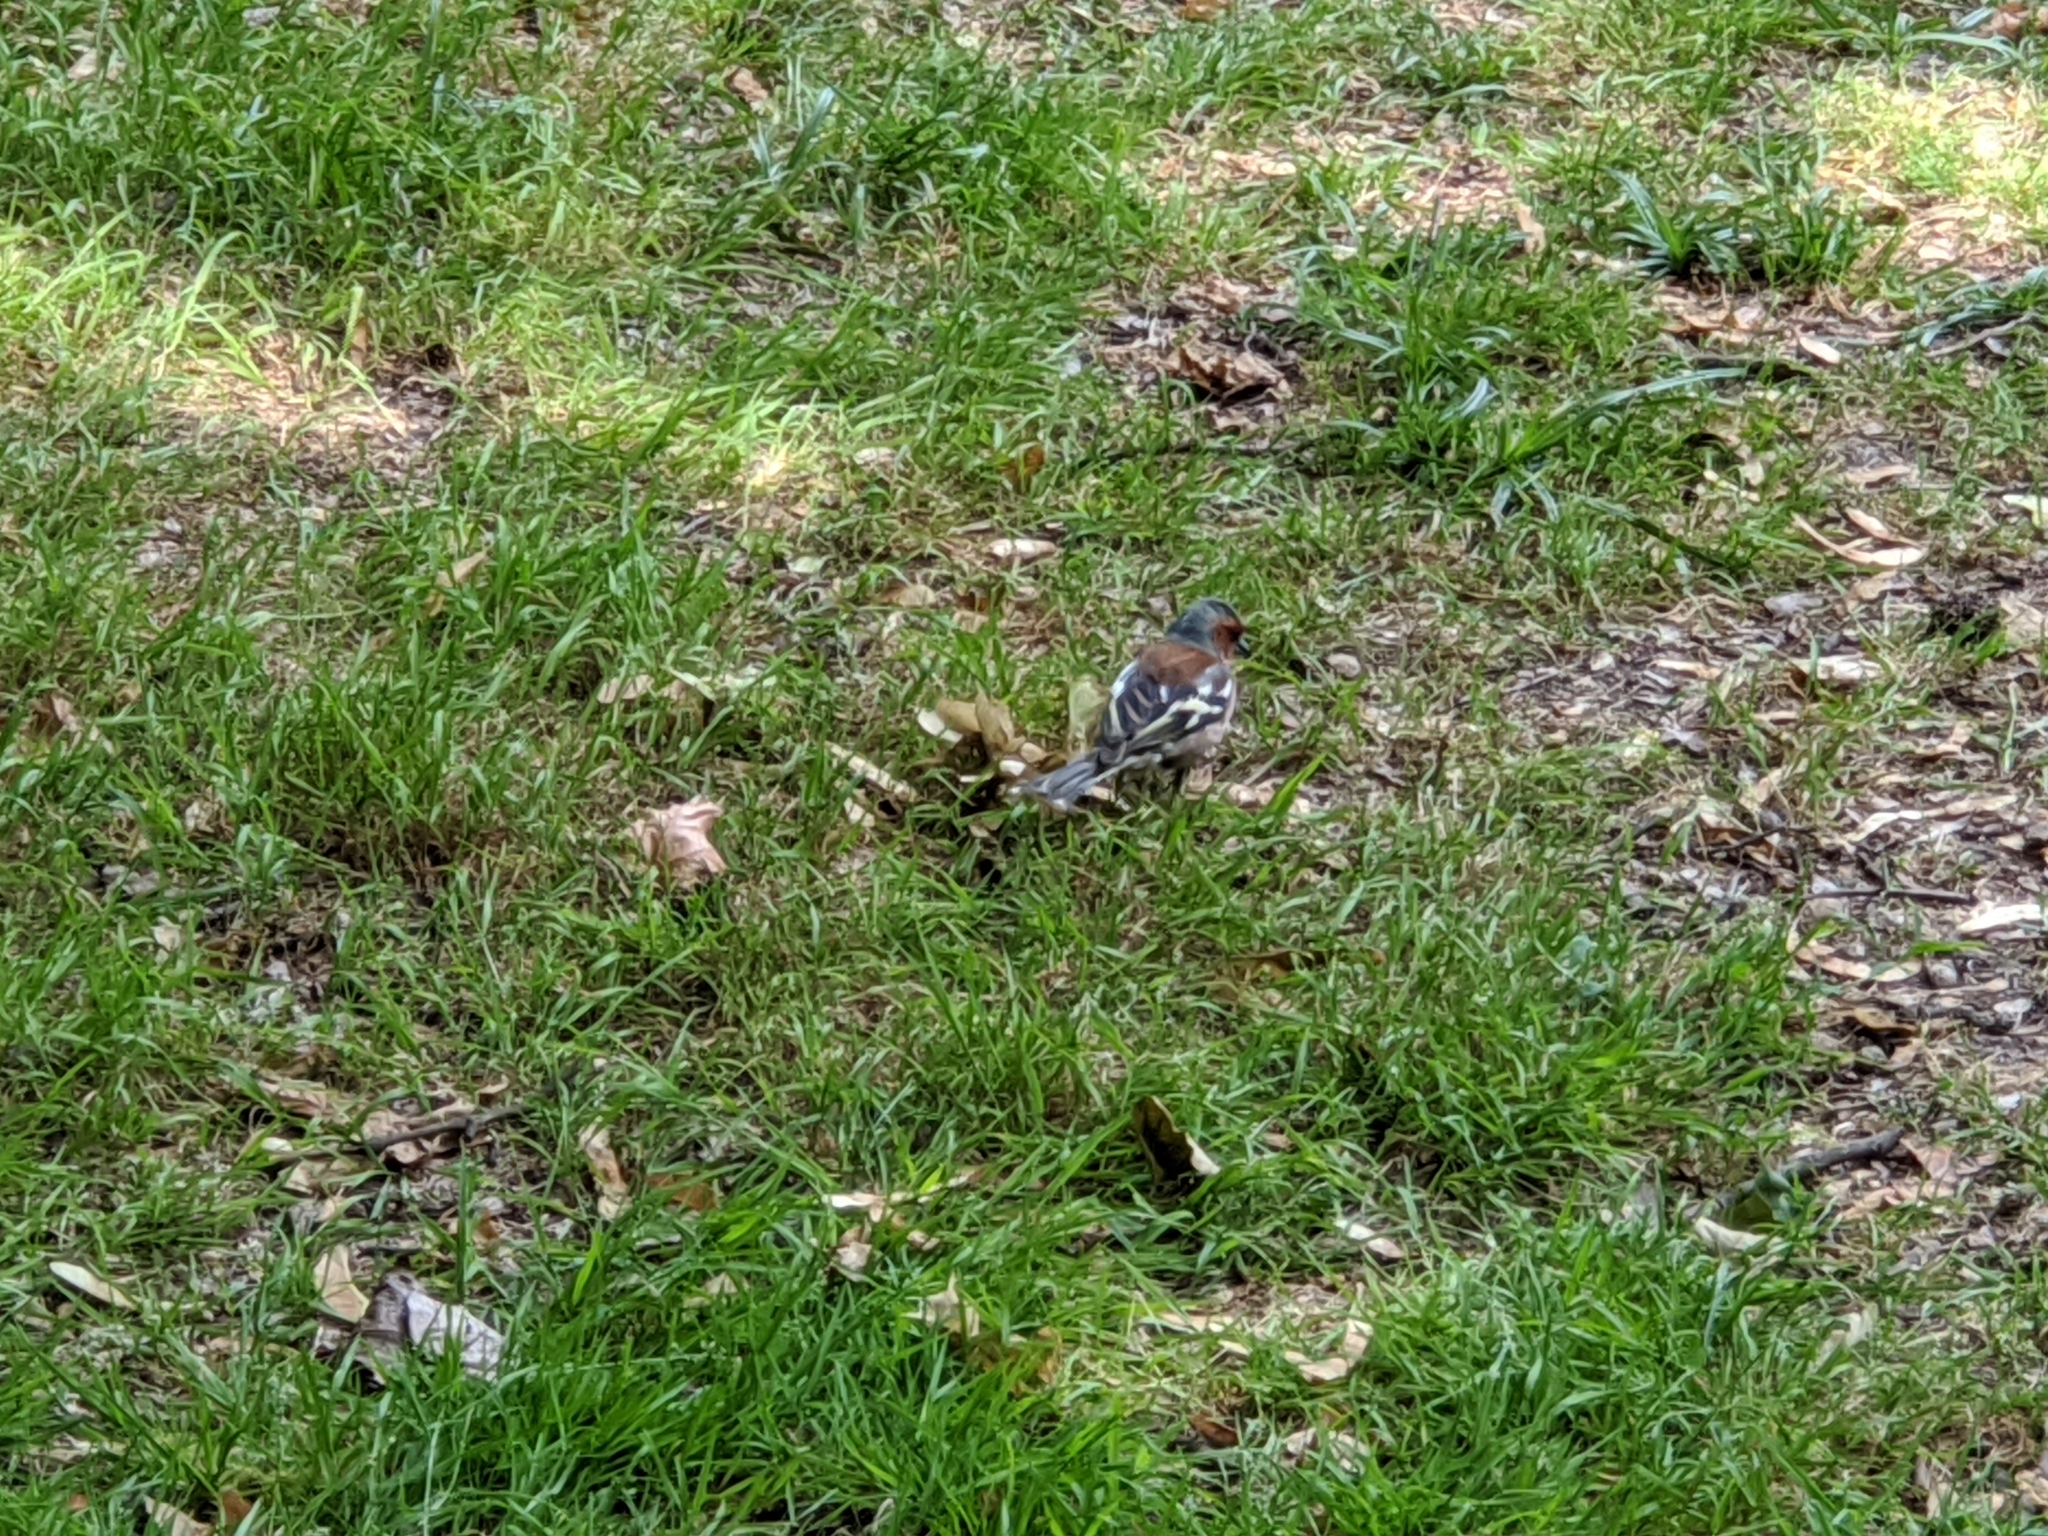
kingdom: Animalia
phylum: Chordata
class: Aves
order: Passeriformes
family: Fringillidae
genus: Fringilla
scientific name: Fringilla coelebs
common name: Common chaffinch
